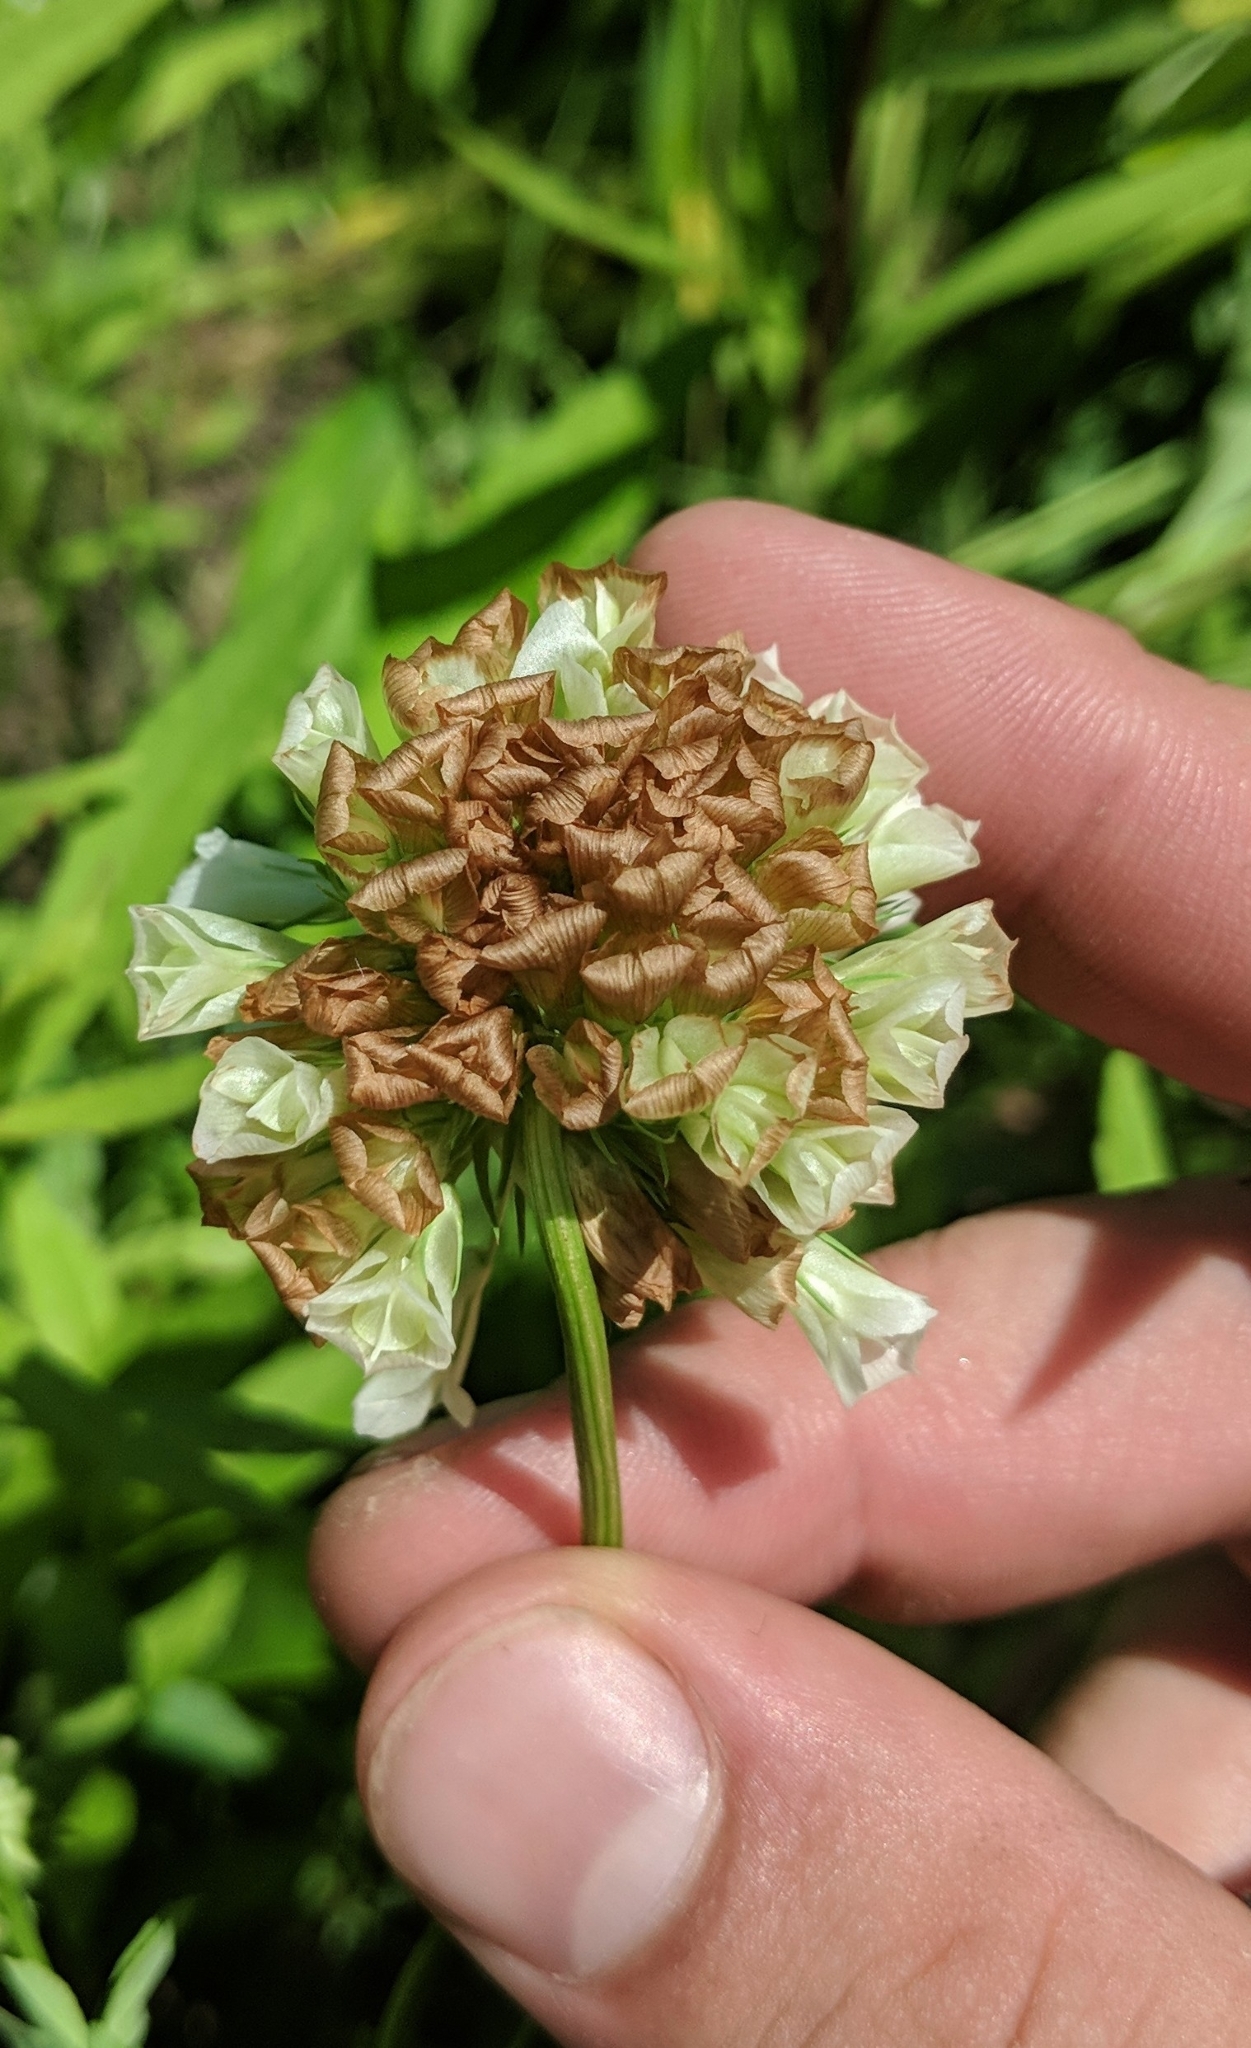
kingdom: Plantae
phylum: Tracheophyta
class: Magnoliopsida
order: Fabales
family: Fabaceae
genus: Trifolium
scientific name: Trifolium reflexum
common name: Buffalo clover
